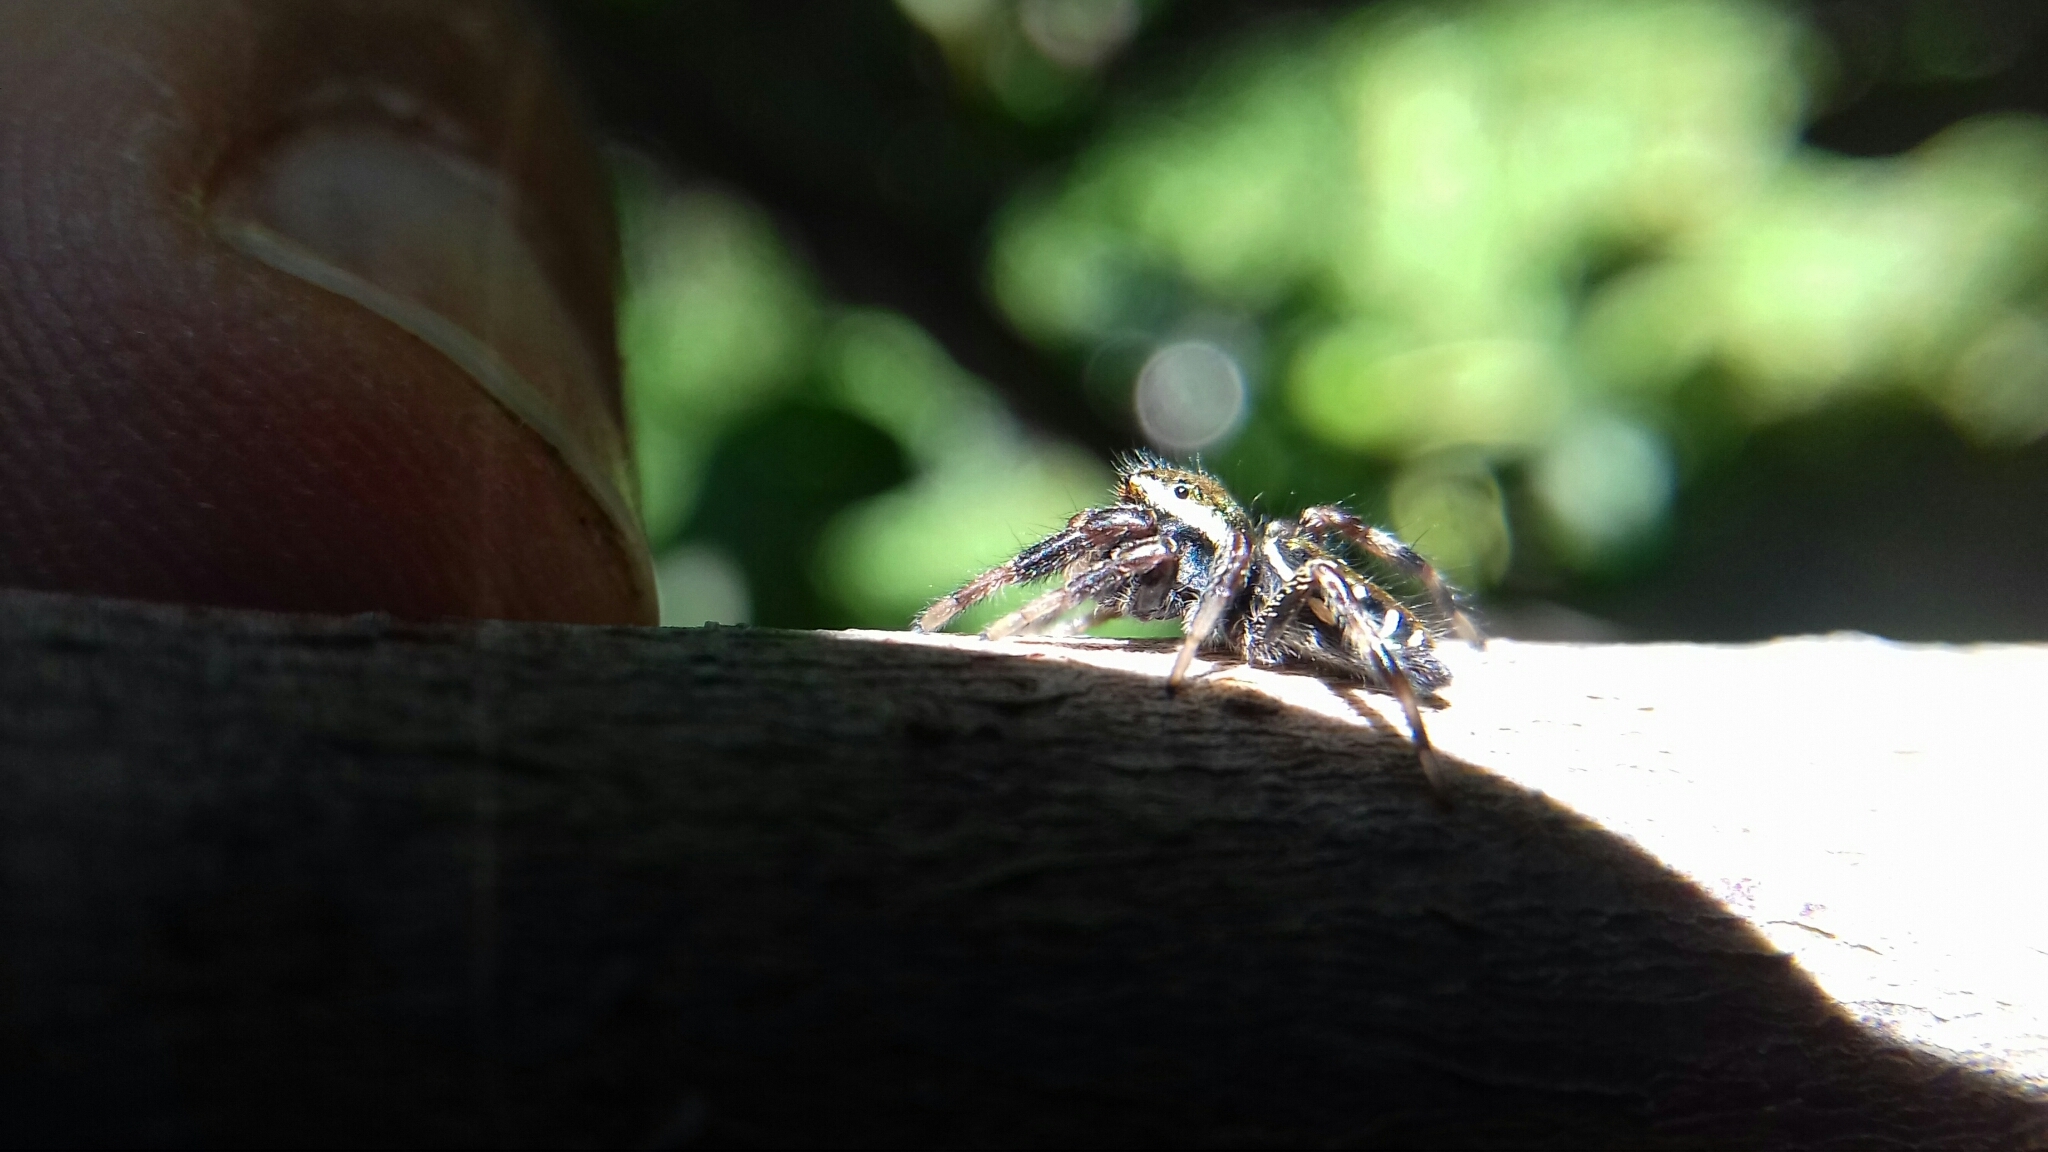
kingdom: Animalia
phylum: Arthropoda
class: Arachnida
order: Araneae
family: Salticidae
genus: Paraphidippus
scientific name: Paraphidippus aurantius
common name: Jumping spiders
